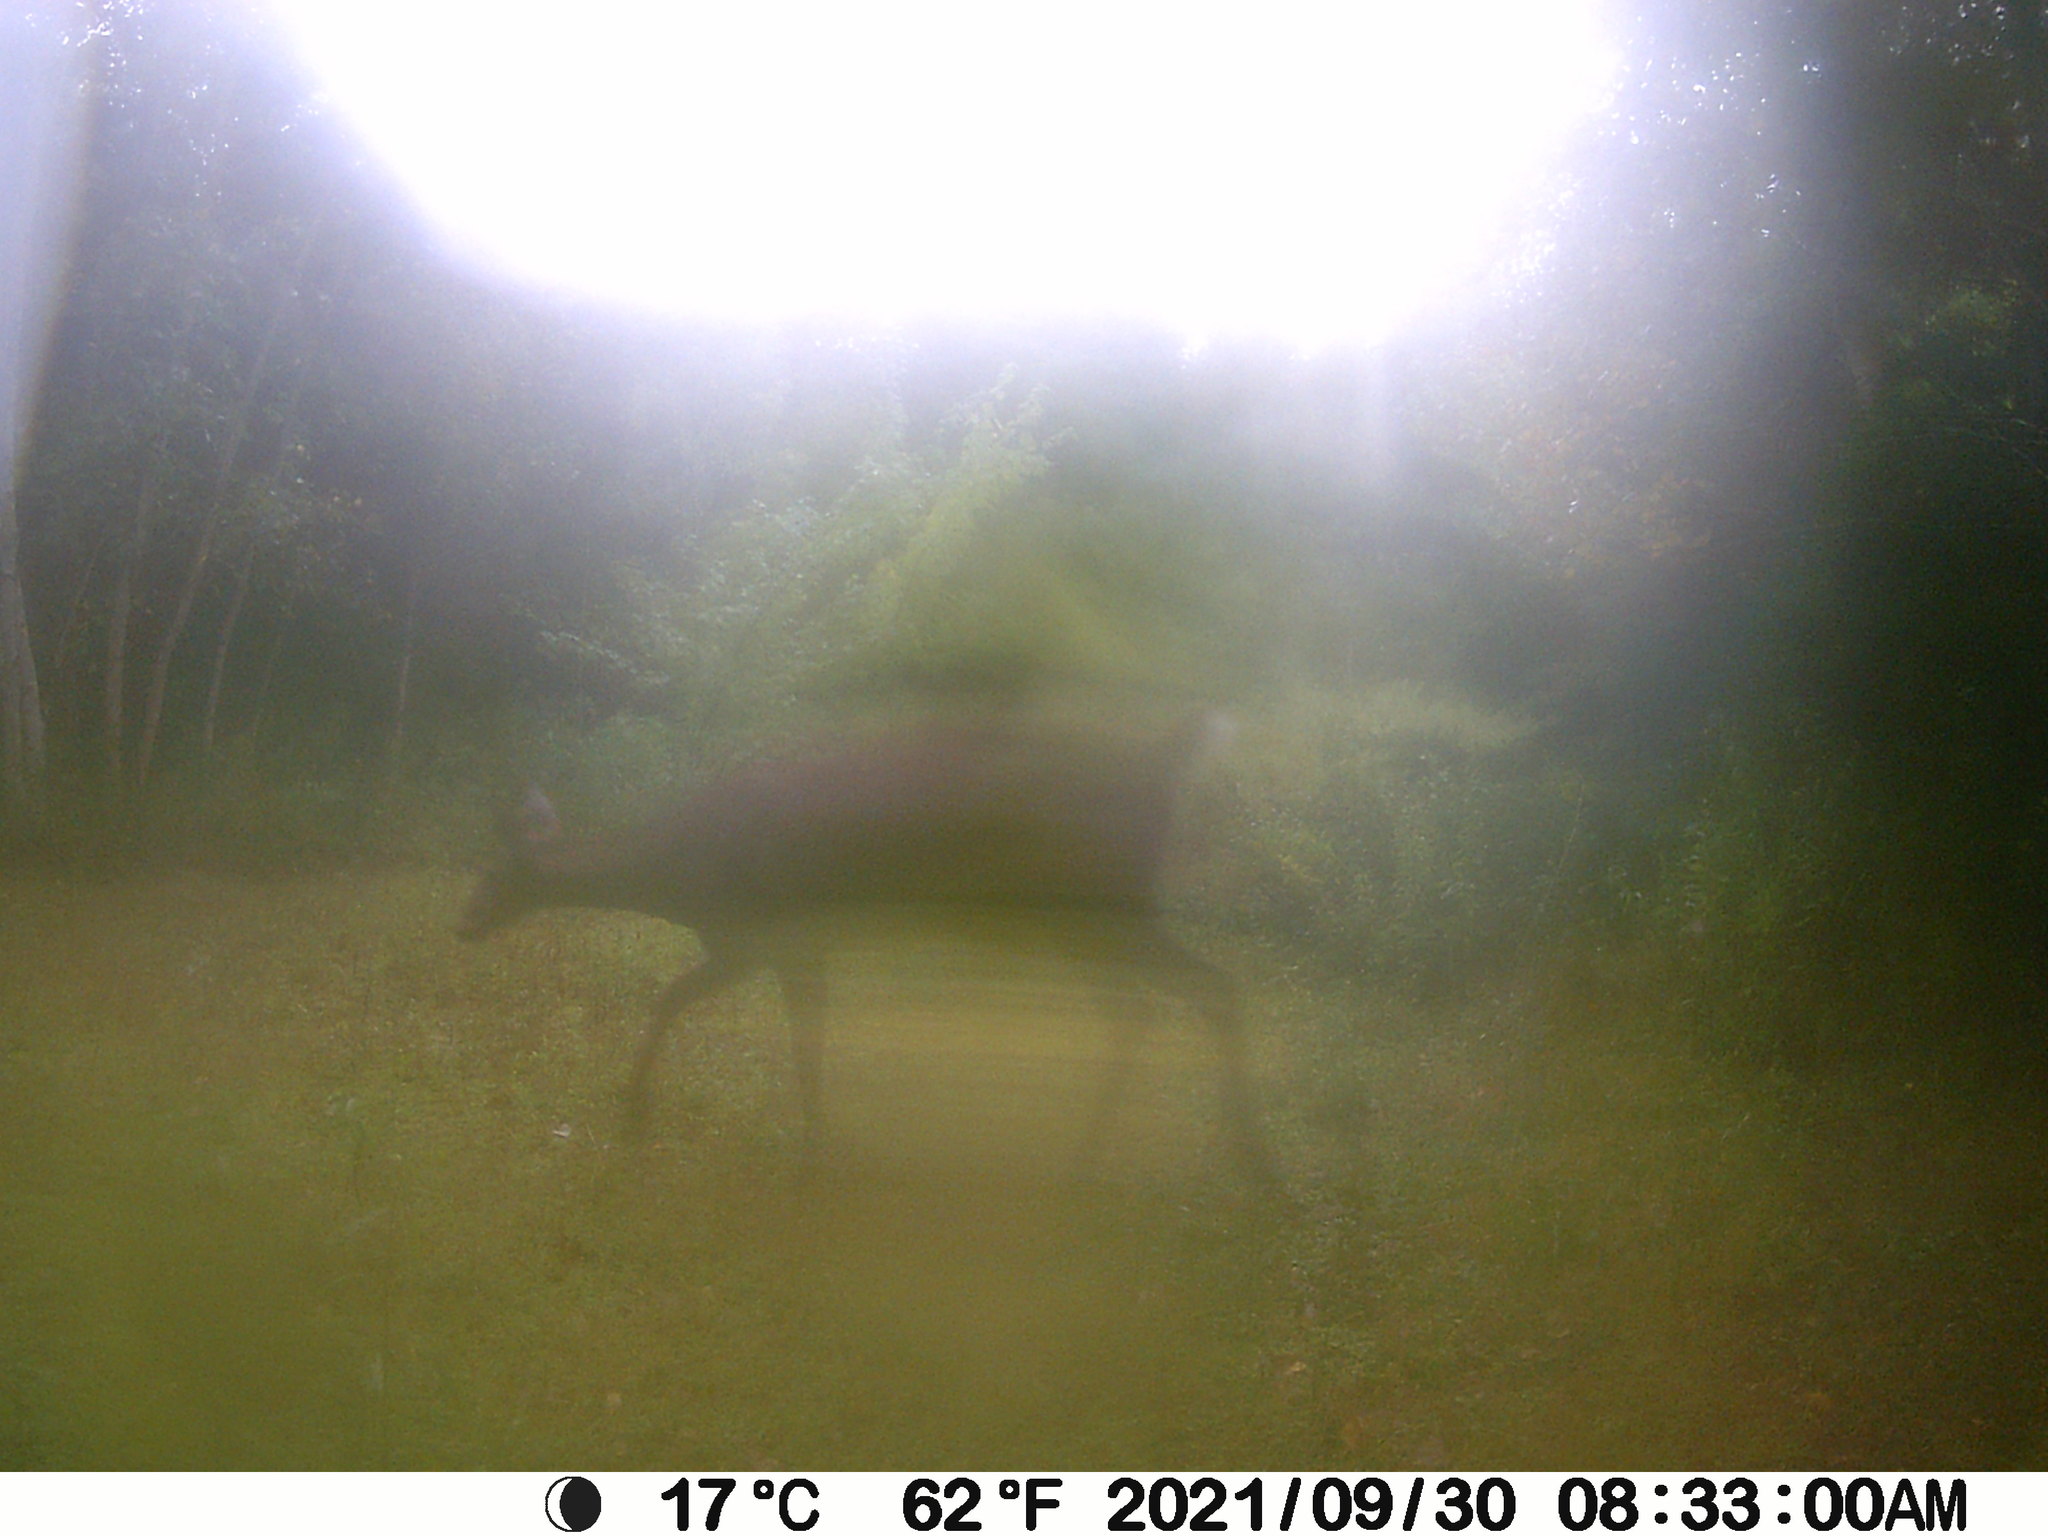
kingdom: Animalia
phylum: Chordata
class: Mammalia
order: Artiodactyla
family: Cervidae
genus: Odocoileus
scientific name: Odocoileus virginianus
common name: White-tailed deer
